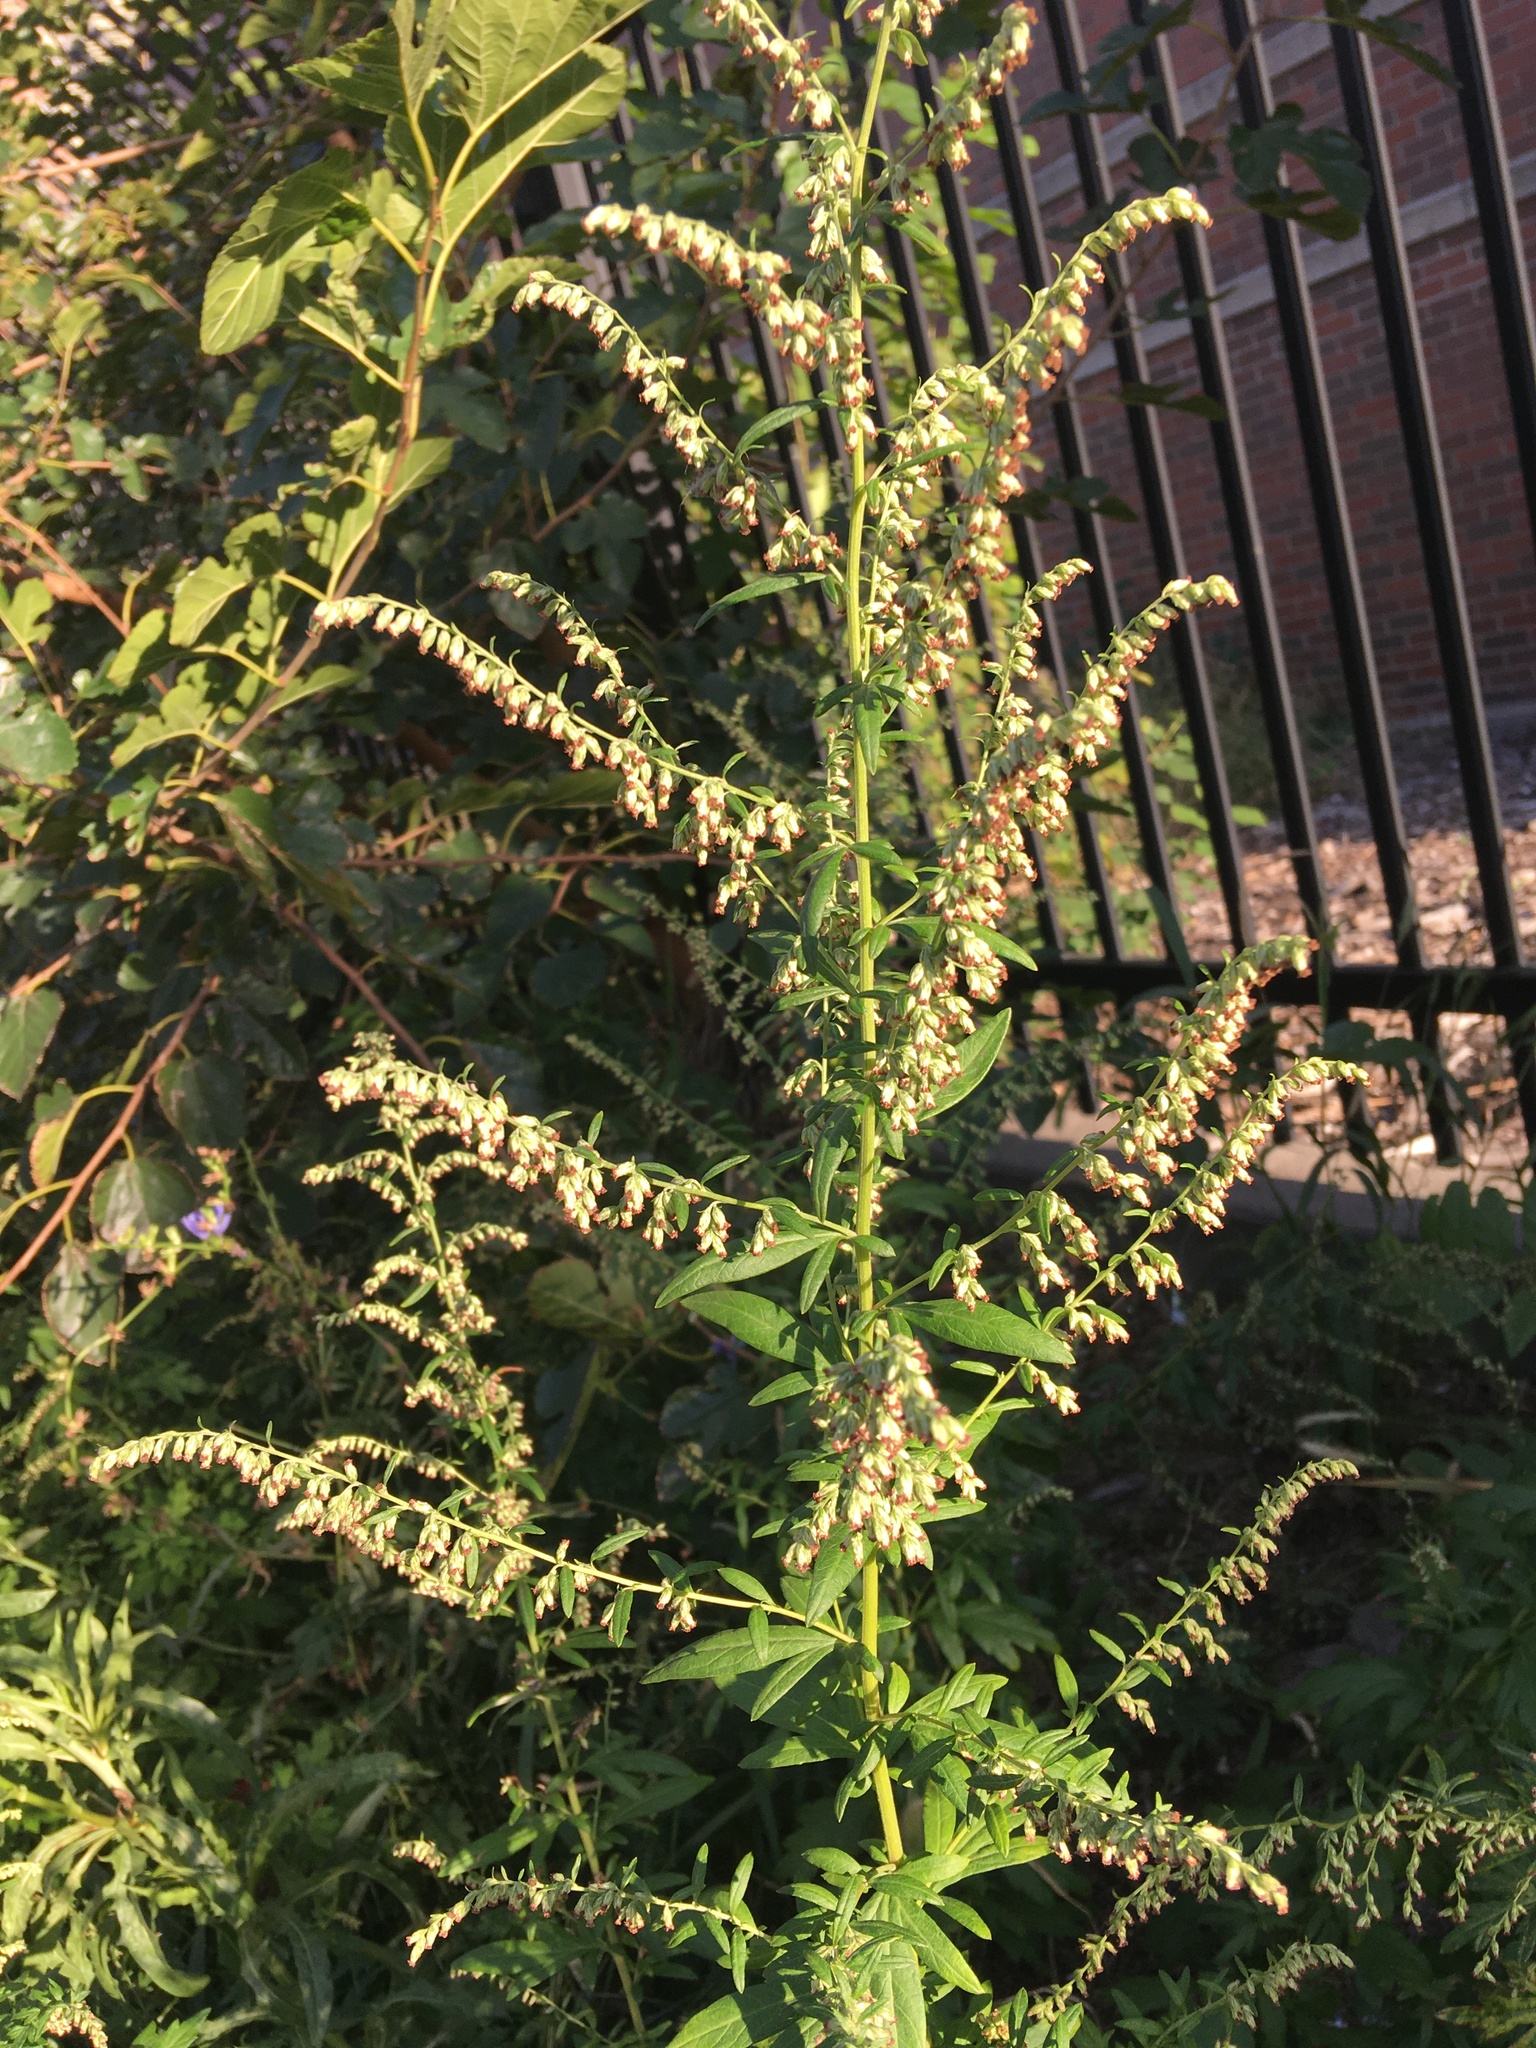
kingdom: Plantae
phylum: Tracheophyta
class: Magnoliopsida
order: Asterales
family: Asteraceae
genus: Artemisia
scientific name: Artemisia vulgaris
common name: Mugwort
